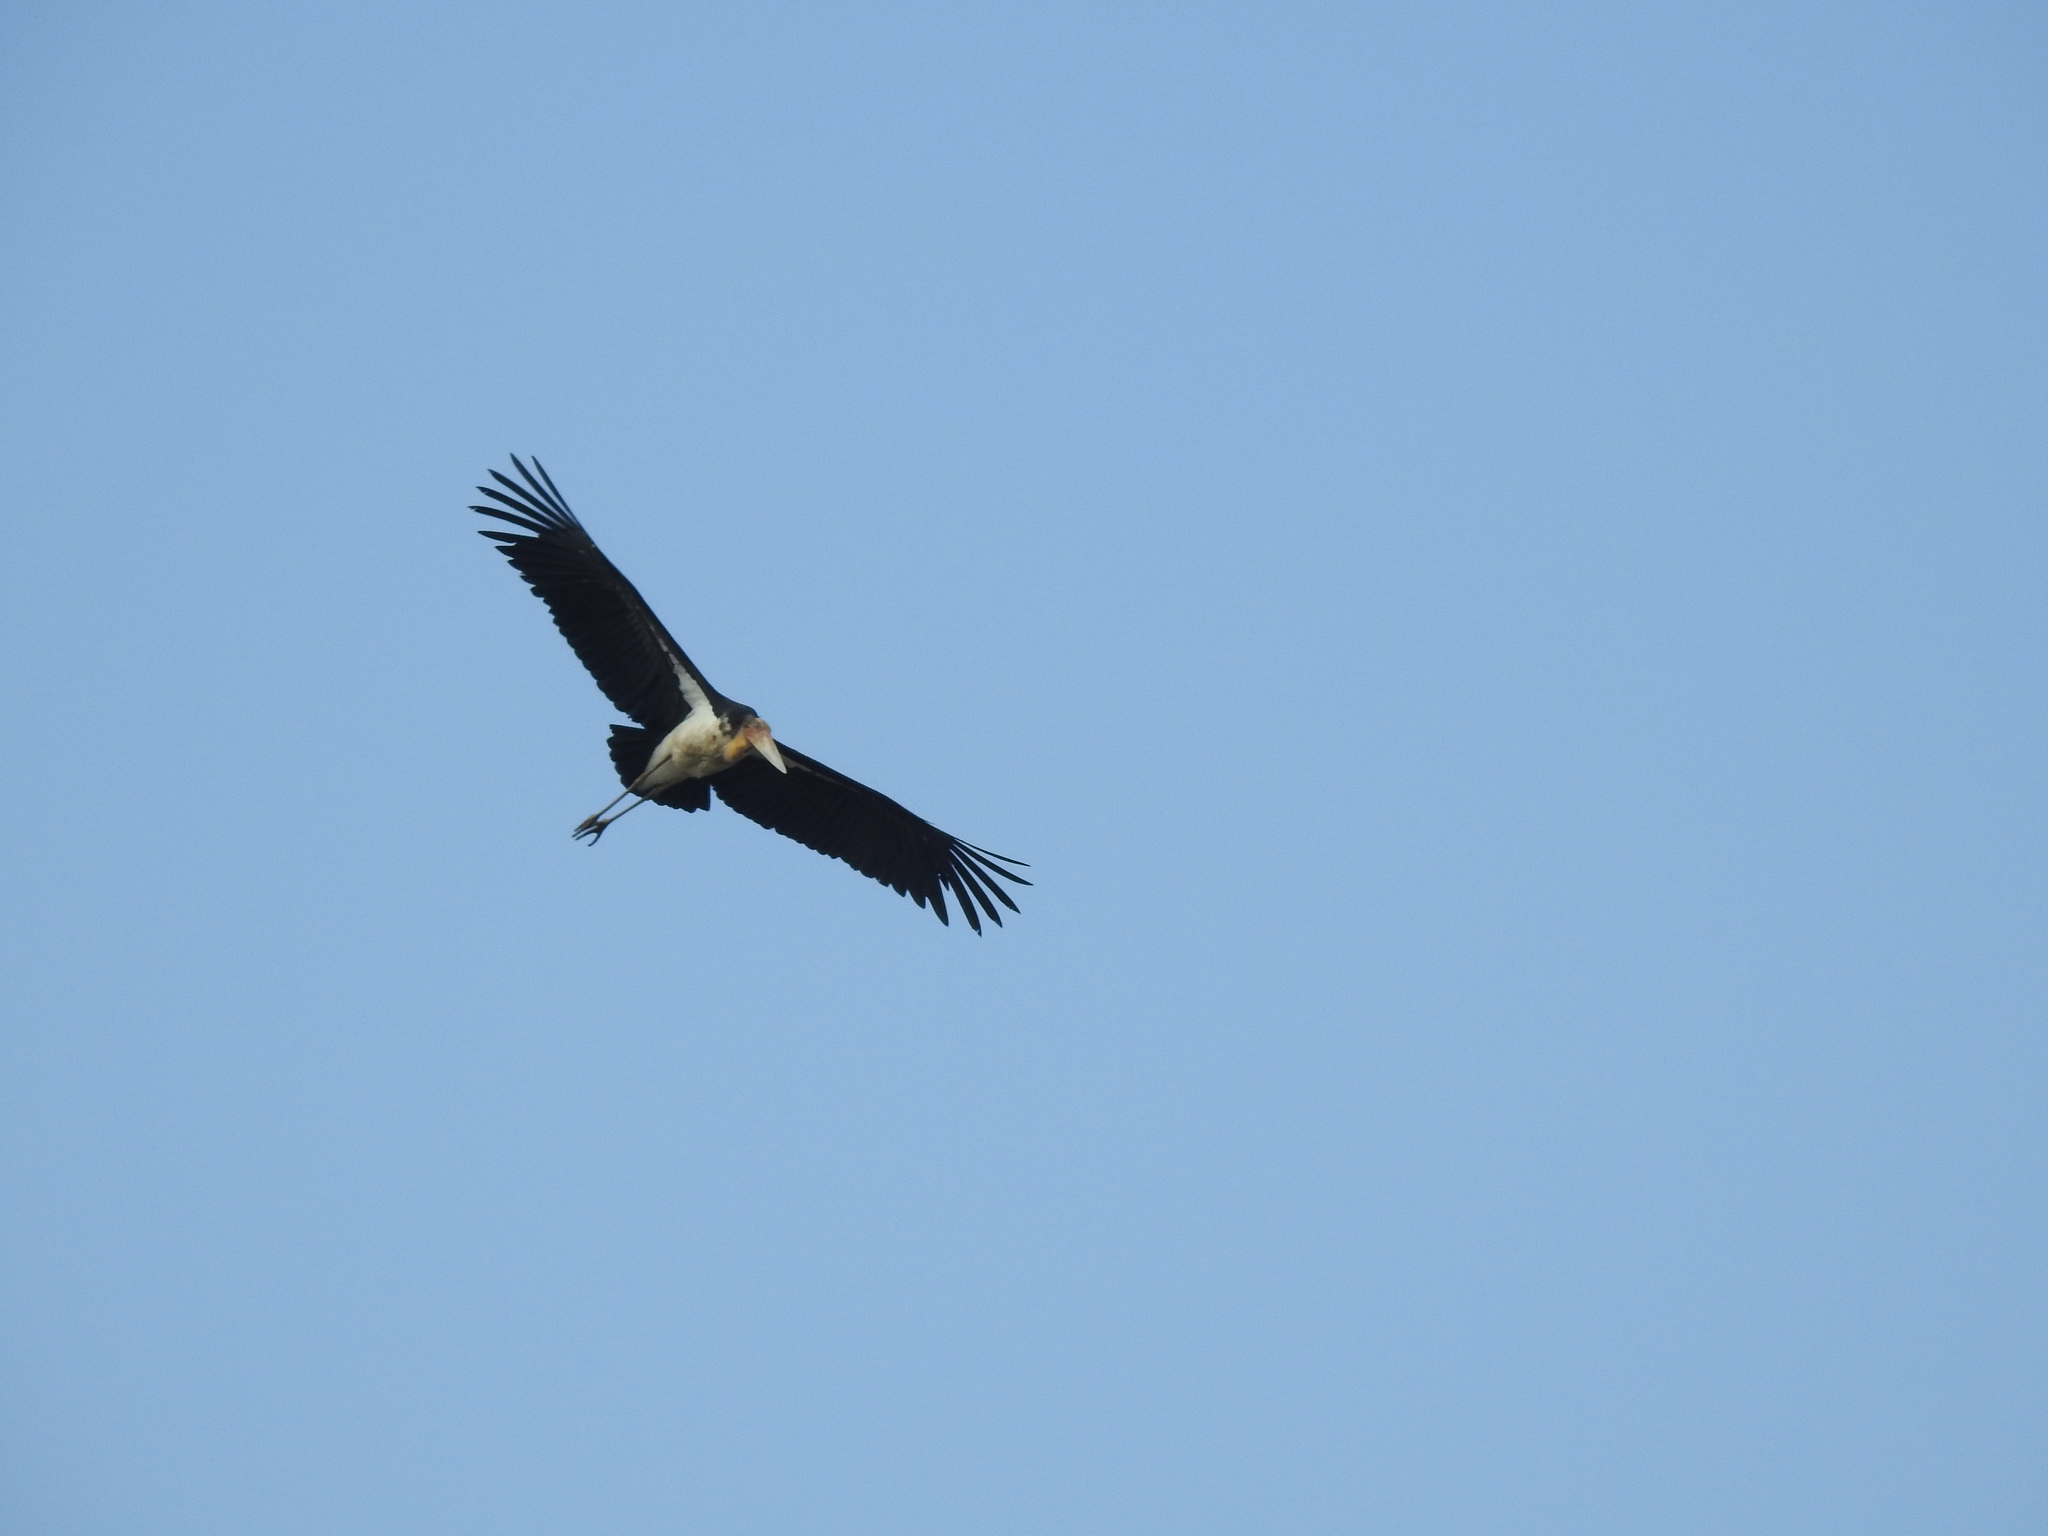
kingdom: Animalia
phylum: Chordata
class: Aves
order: Ciconiiformes
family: Ciconiidae
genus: Leptoptilos
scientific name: Leptoptilos javanicus
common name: Lesser adjutant
